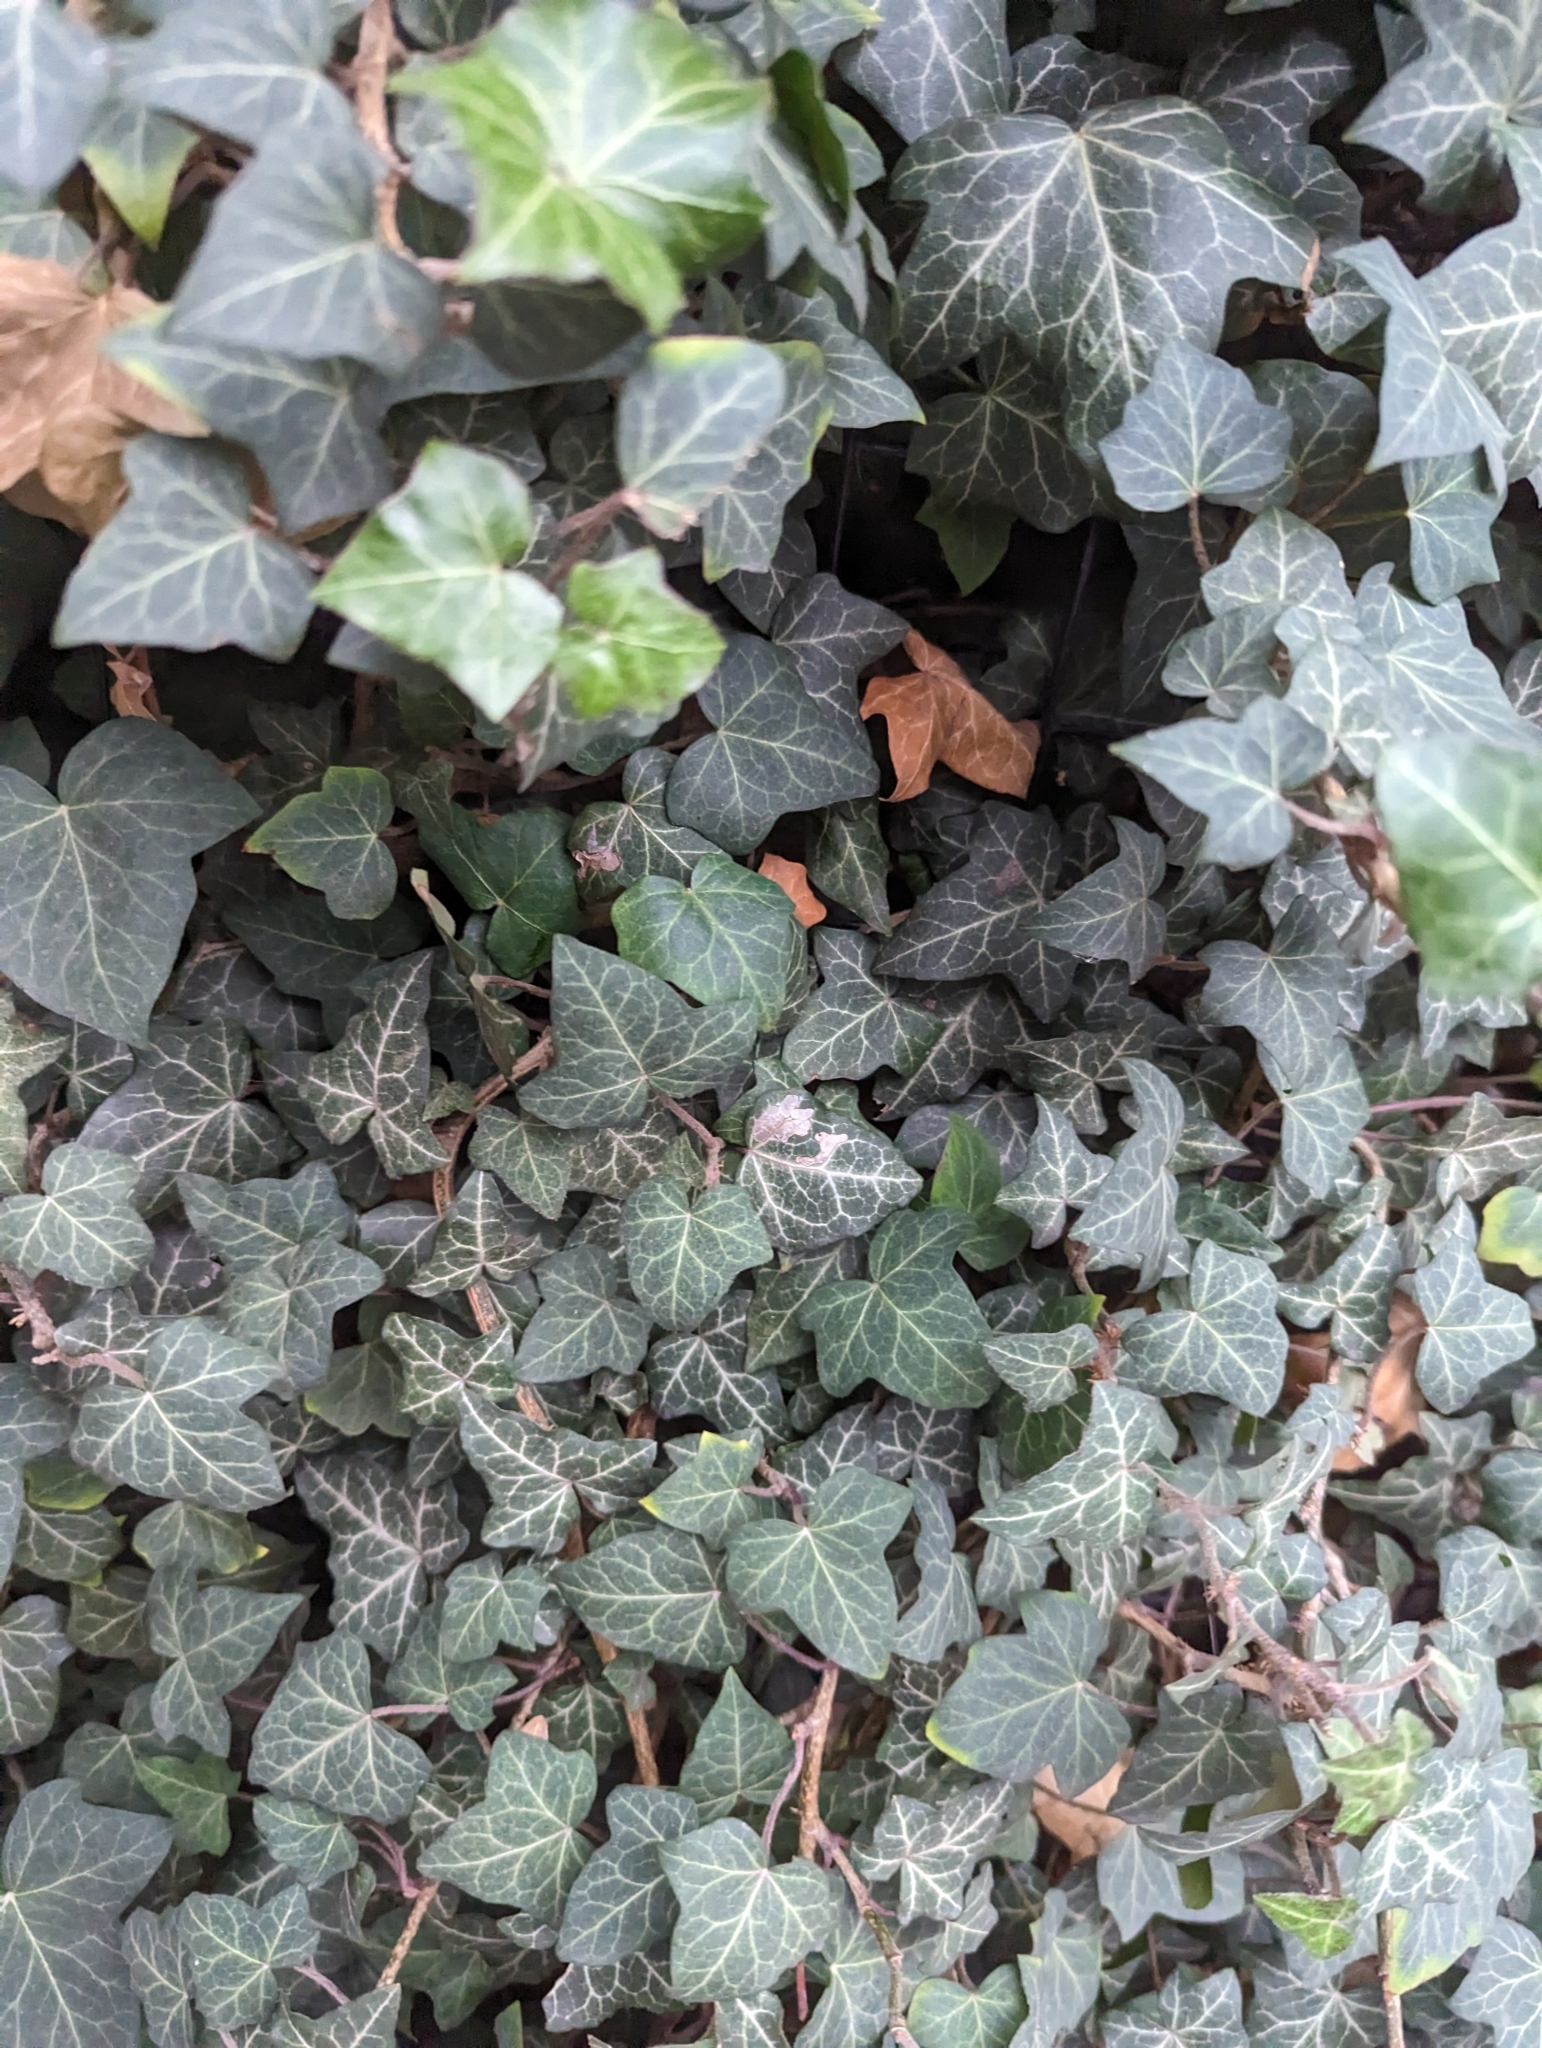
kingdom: Plantae
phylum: Tracheophyta
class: Magnoliopsida
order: Apiales
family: Araliaceae
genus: Hedera
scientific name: Hedera helix
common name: Ivy
